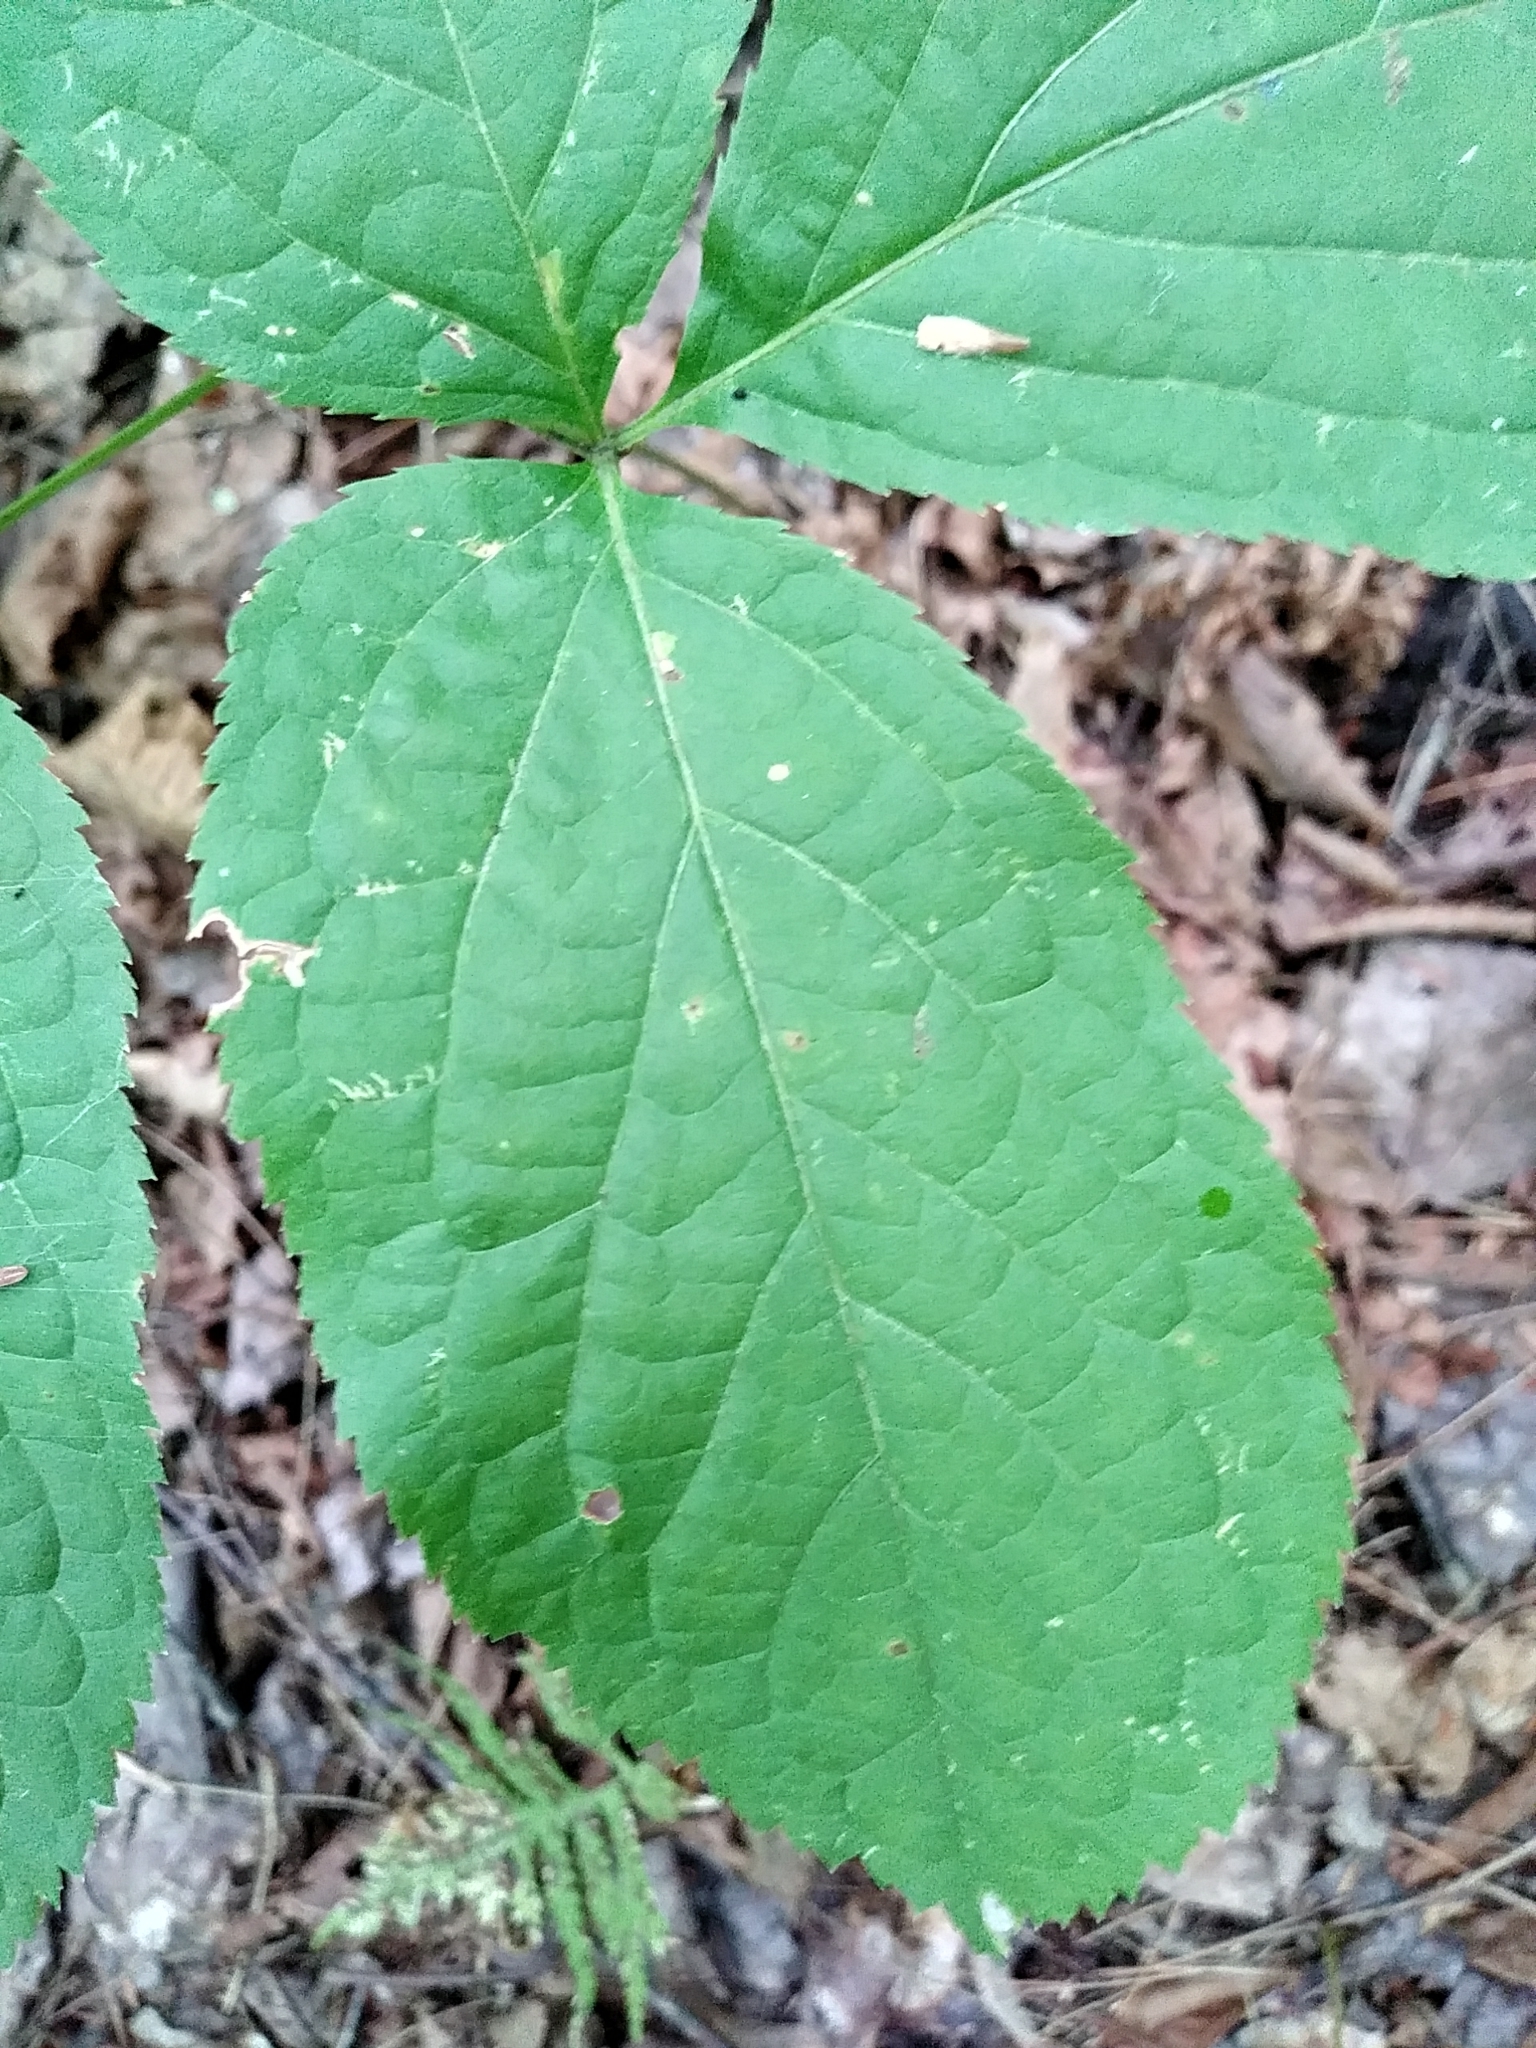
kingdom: Plantae
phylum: Tracheophyta
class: Magnoliopsida
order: Apiales
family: Araliaceae
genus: Aralia
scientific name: Aralia nudicaulis
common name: Wild sarsaparilla
